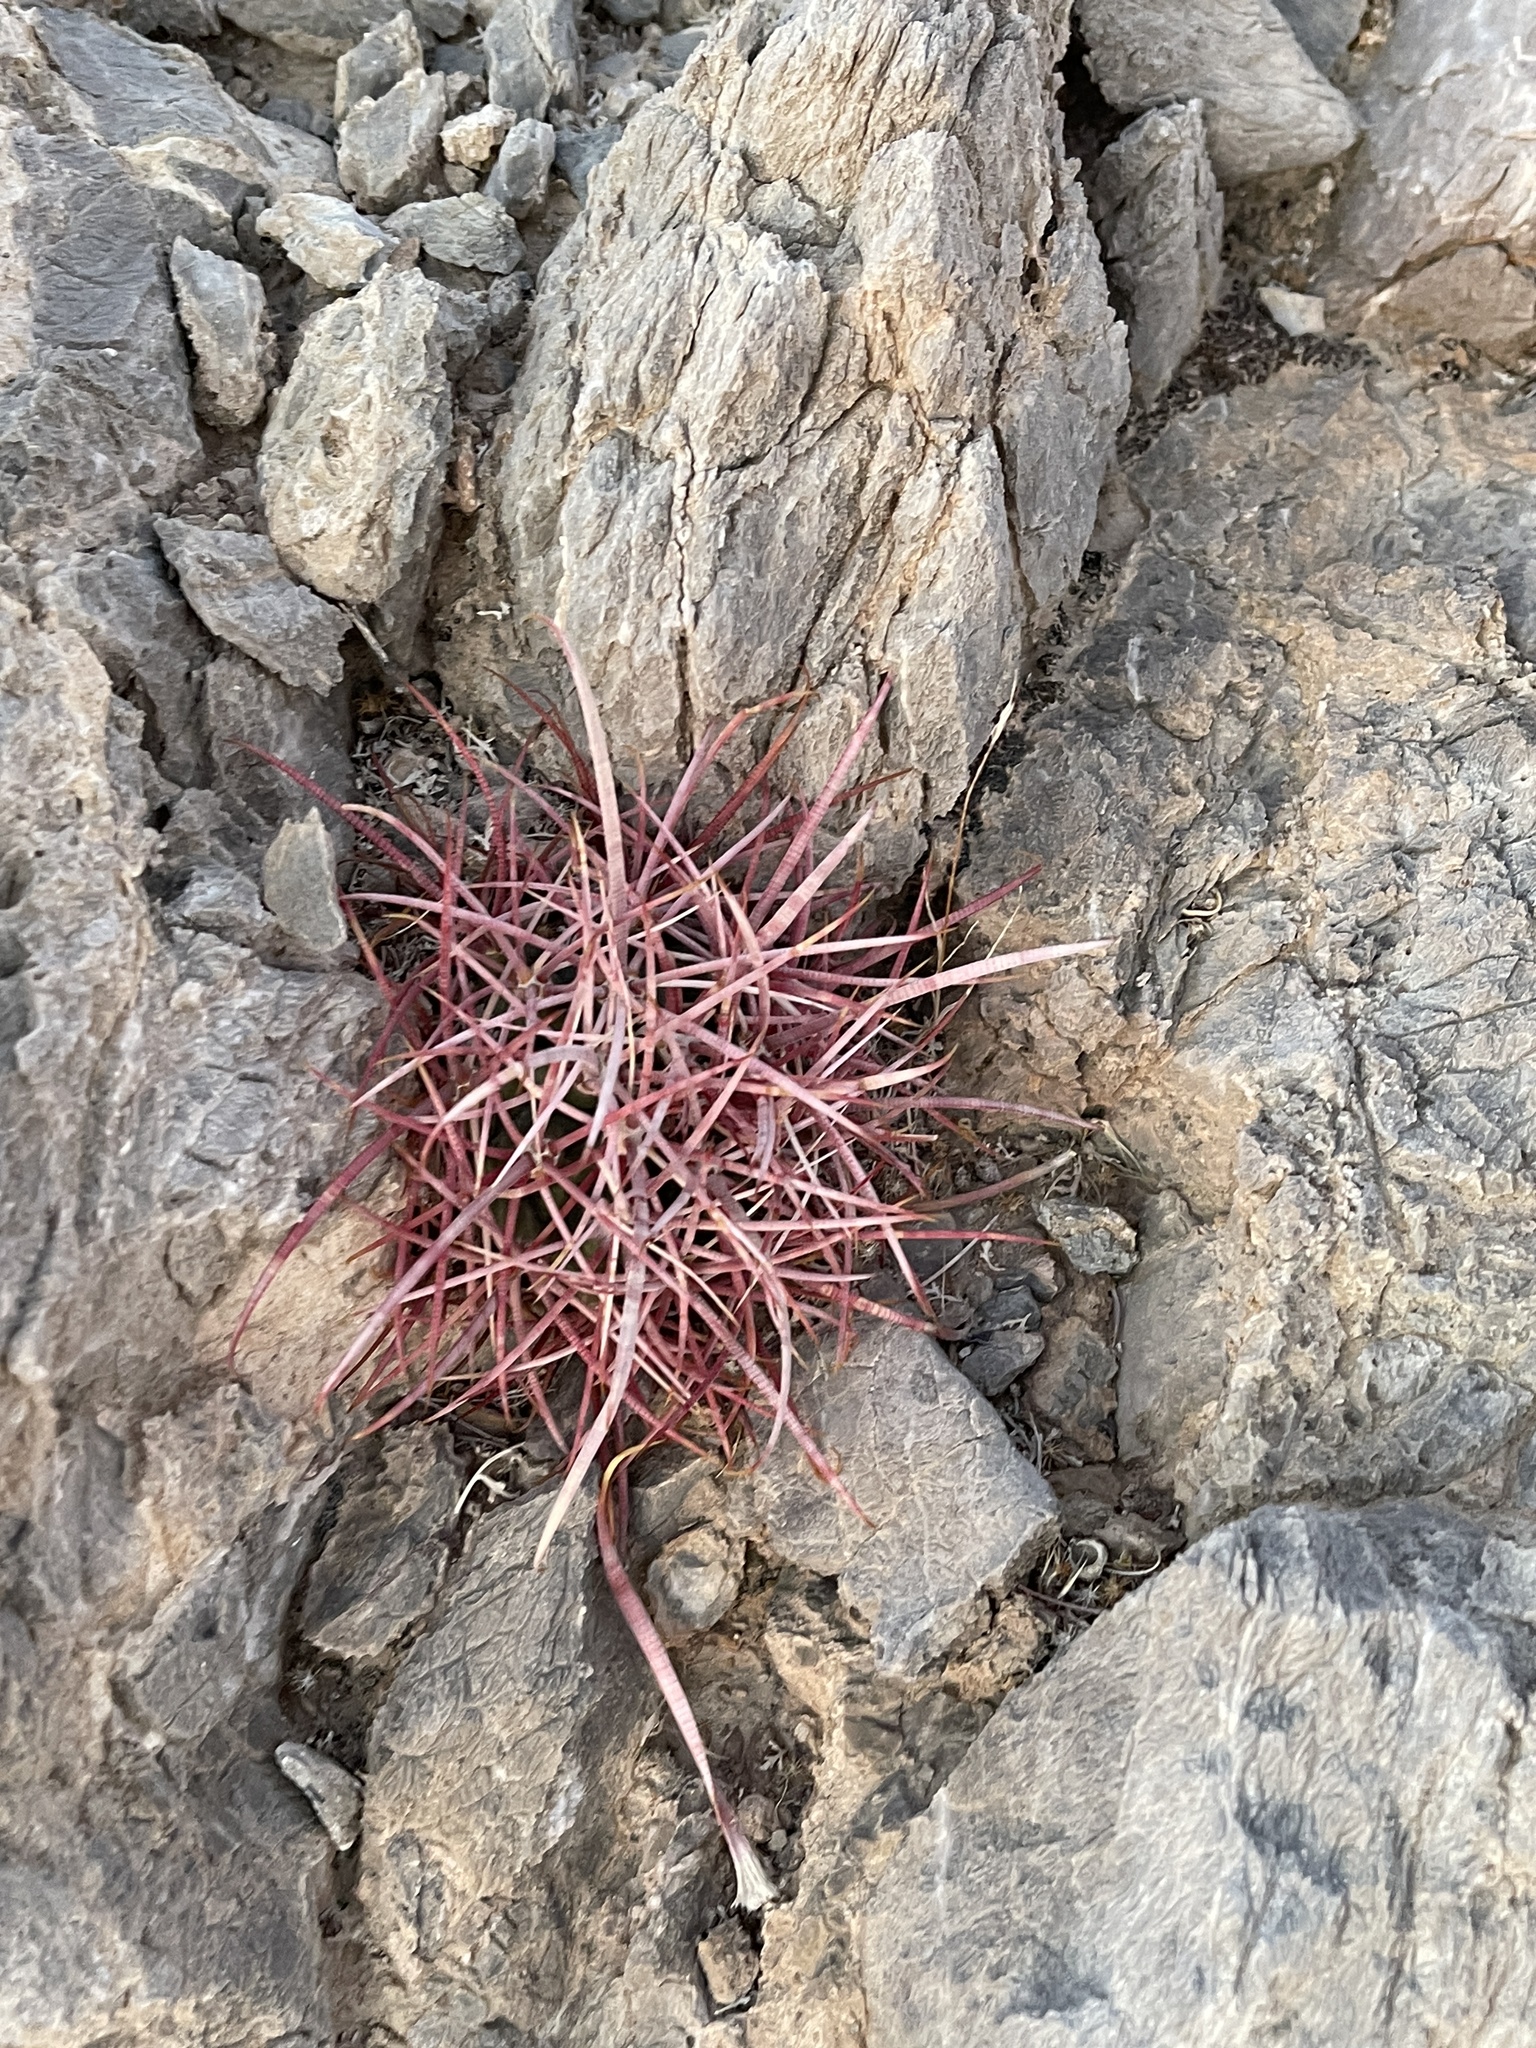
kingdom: Plantae
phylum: Tracheophyta
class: Magnoliopsida
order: Caryophyllales
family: Cactaceae
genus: Ferocactus
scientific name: Ferocactus cylindraceus
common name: California barrel cactus
